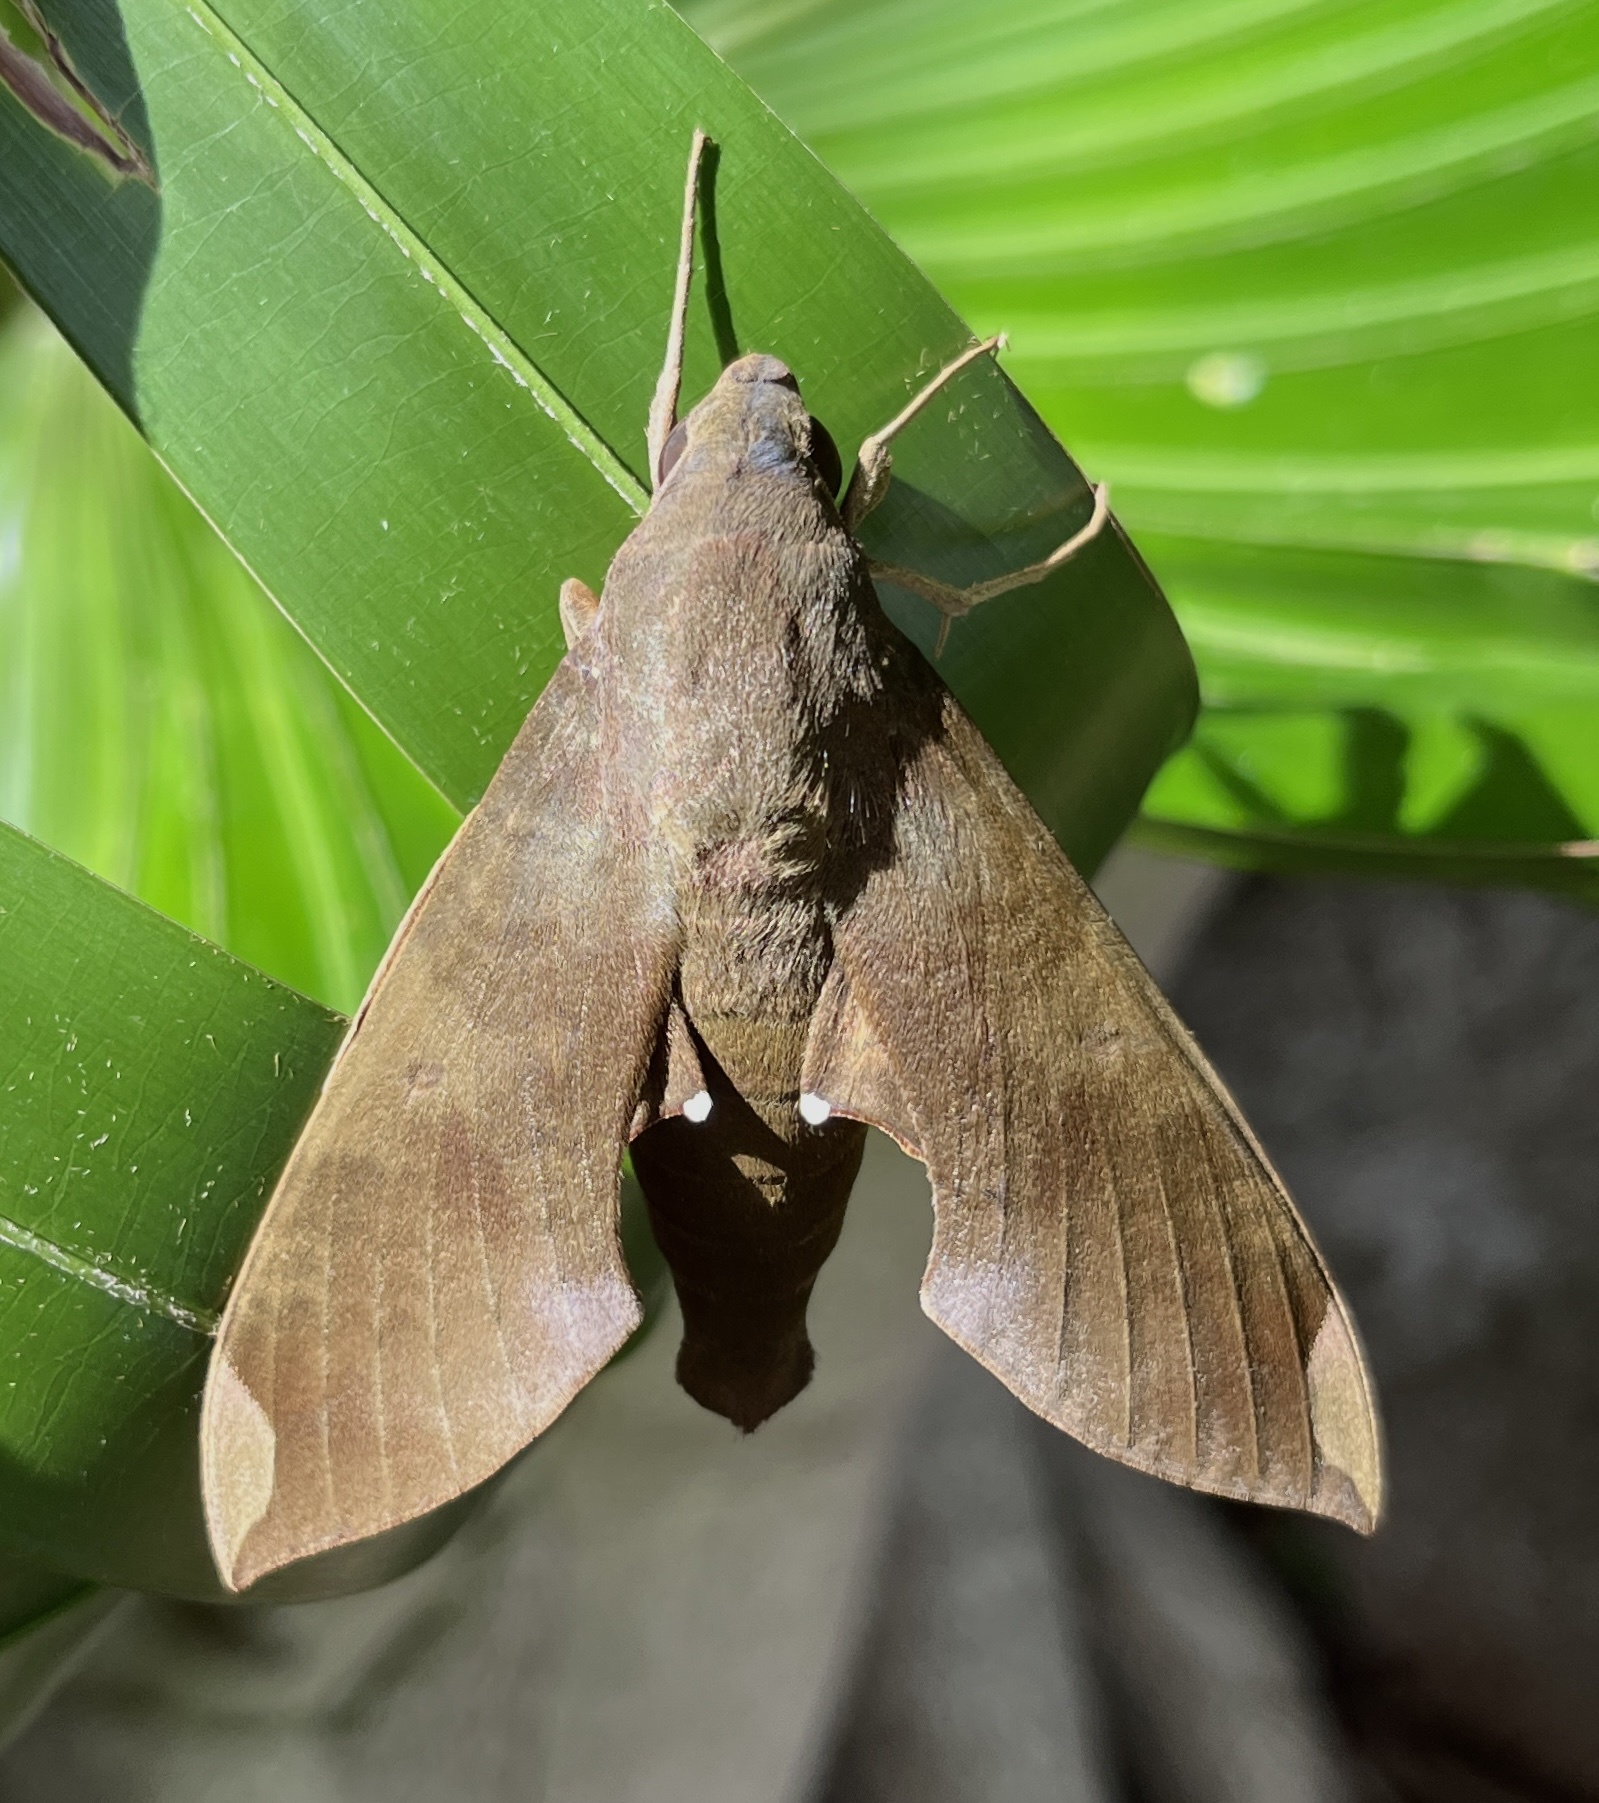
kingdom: Animalia
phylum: Arthropoda
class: Insecta
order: Lepidoptera
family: Sphingidae
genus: Pachylia
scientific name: Pachylia ficus
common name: Fig sphinx
